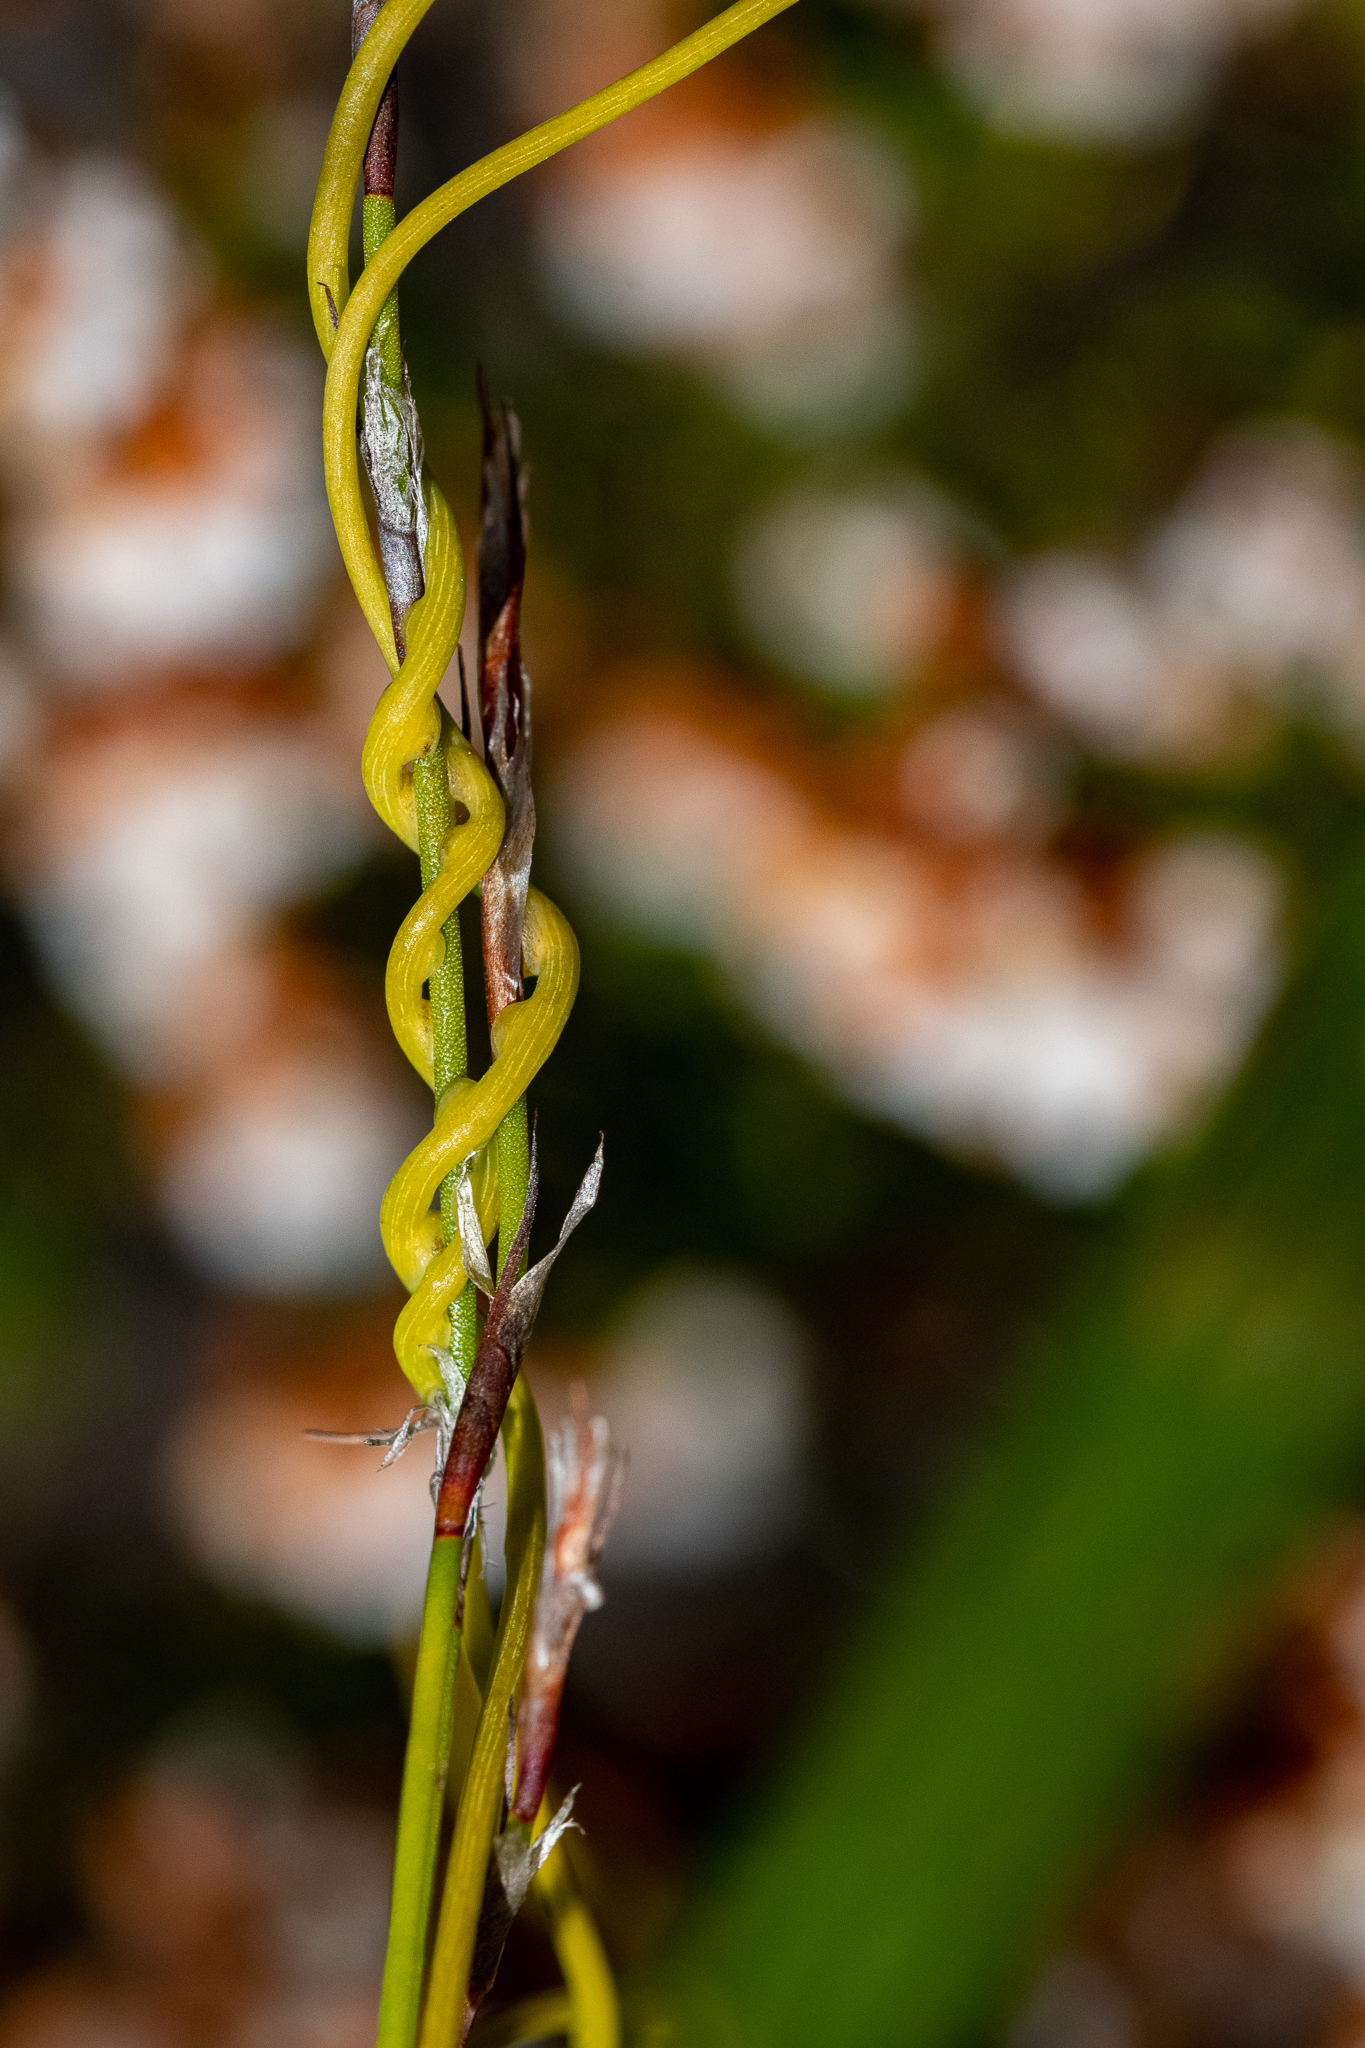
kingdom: Plantae
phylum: Tracheophyta
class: Magnoliopsida
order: Laurales
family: Lauraceae
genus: Cassytha
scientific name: Cassytha ciliolata
